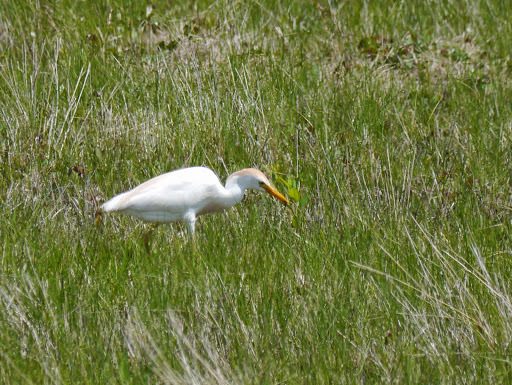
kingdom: Animalia
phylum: Chordata
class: Aves
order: Pelecaniformes
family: Ardeidae
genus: Bubulcus
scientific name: Bubulcus ibis
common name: Cattle egret
